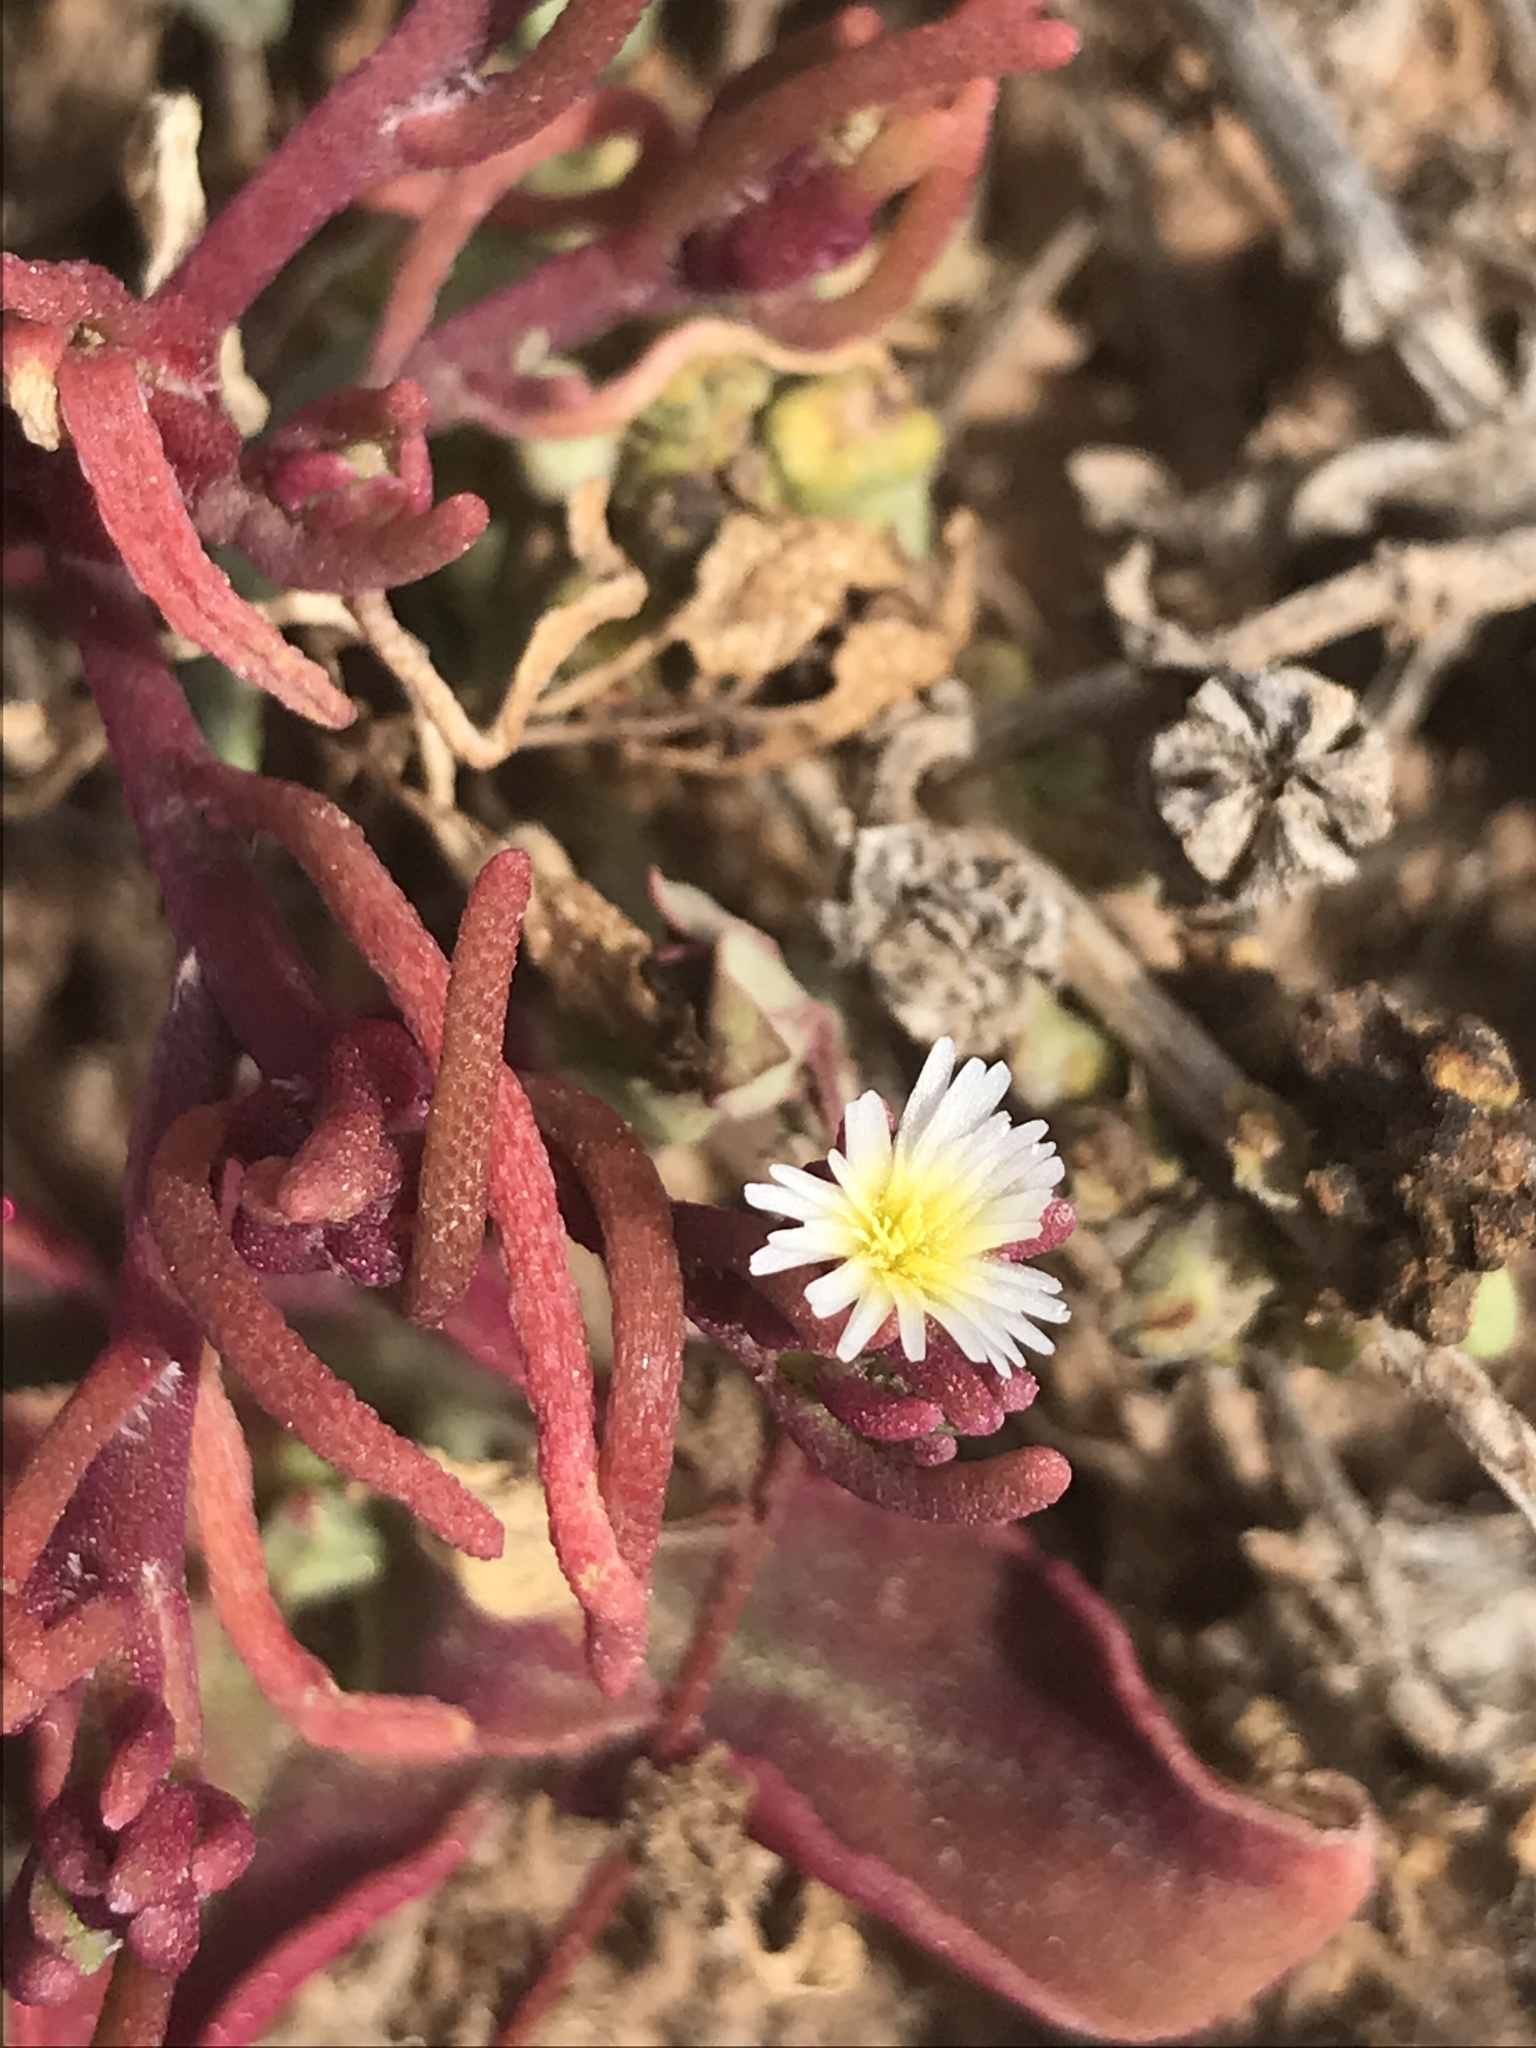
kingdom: Plantae
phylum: Tracheophyta
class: Magnoliopsida
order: Caryophyllales
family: Aizoaceae
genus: Mesembryanthemum
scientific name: Mesembryanthemum nodiflorum
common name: Slenderleaf iceplant
